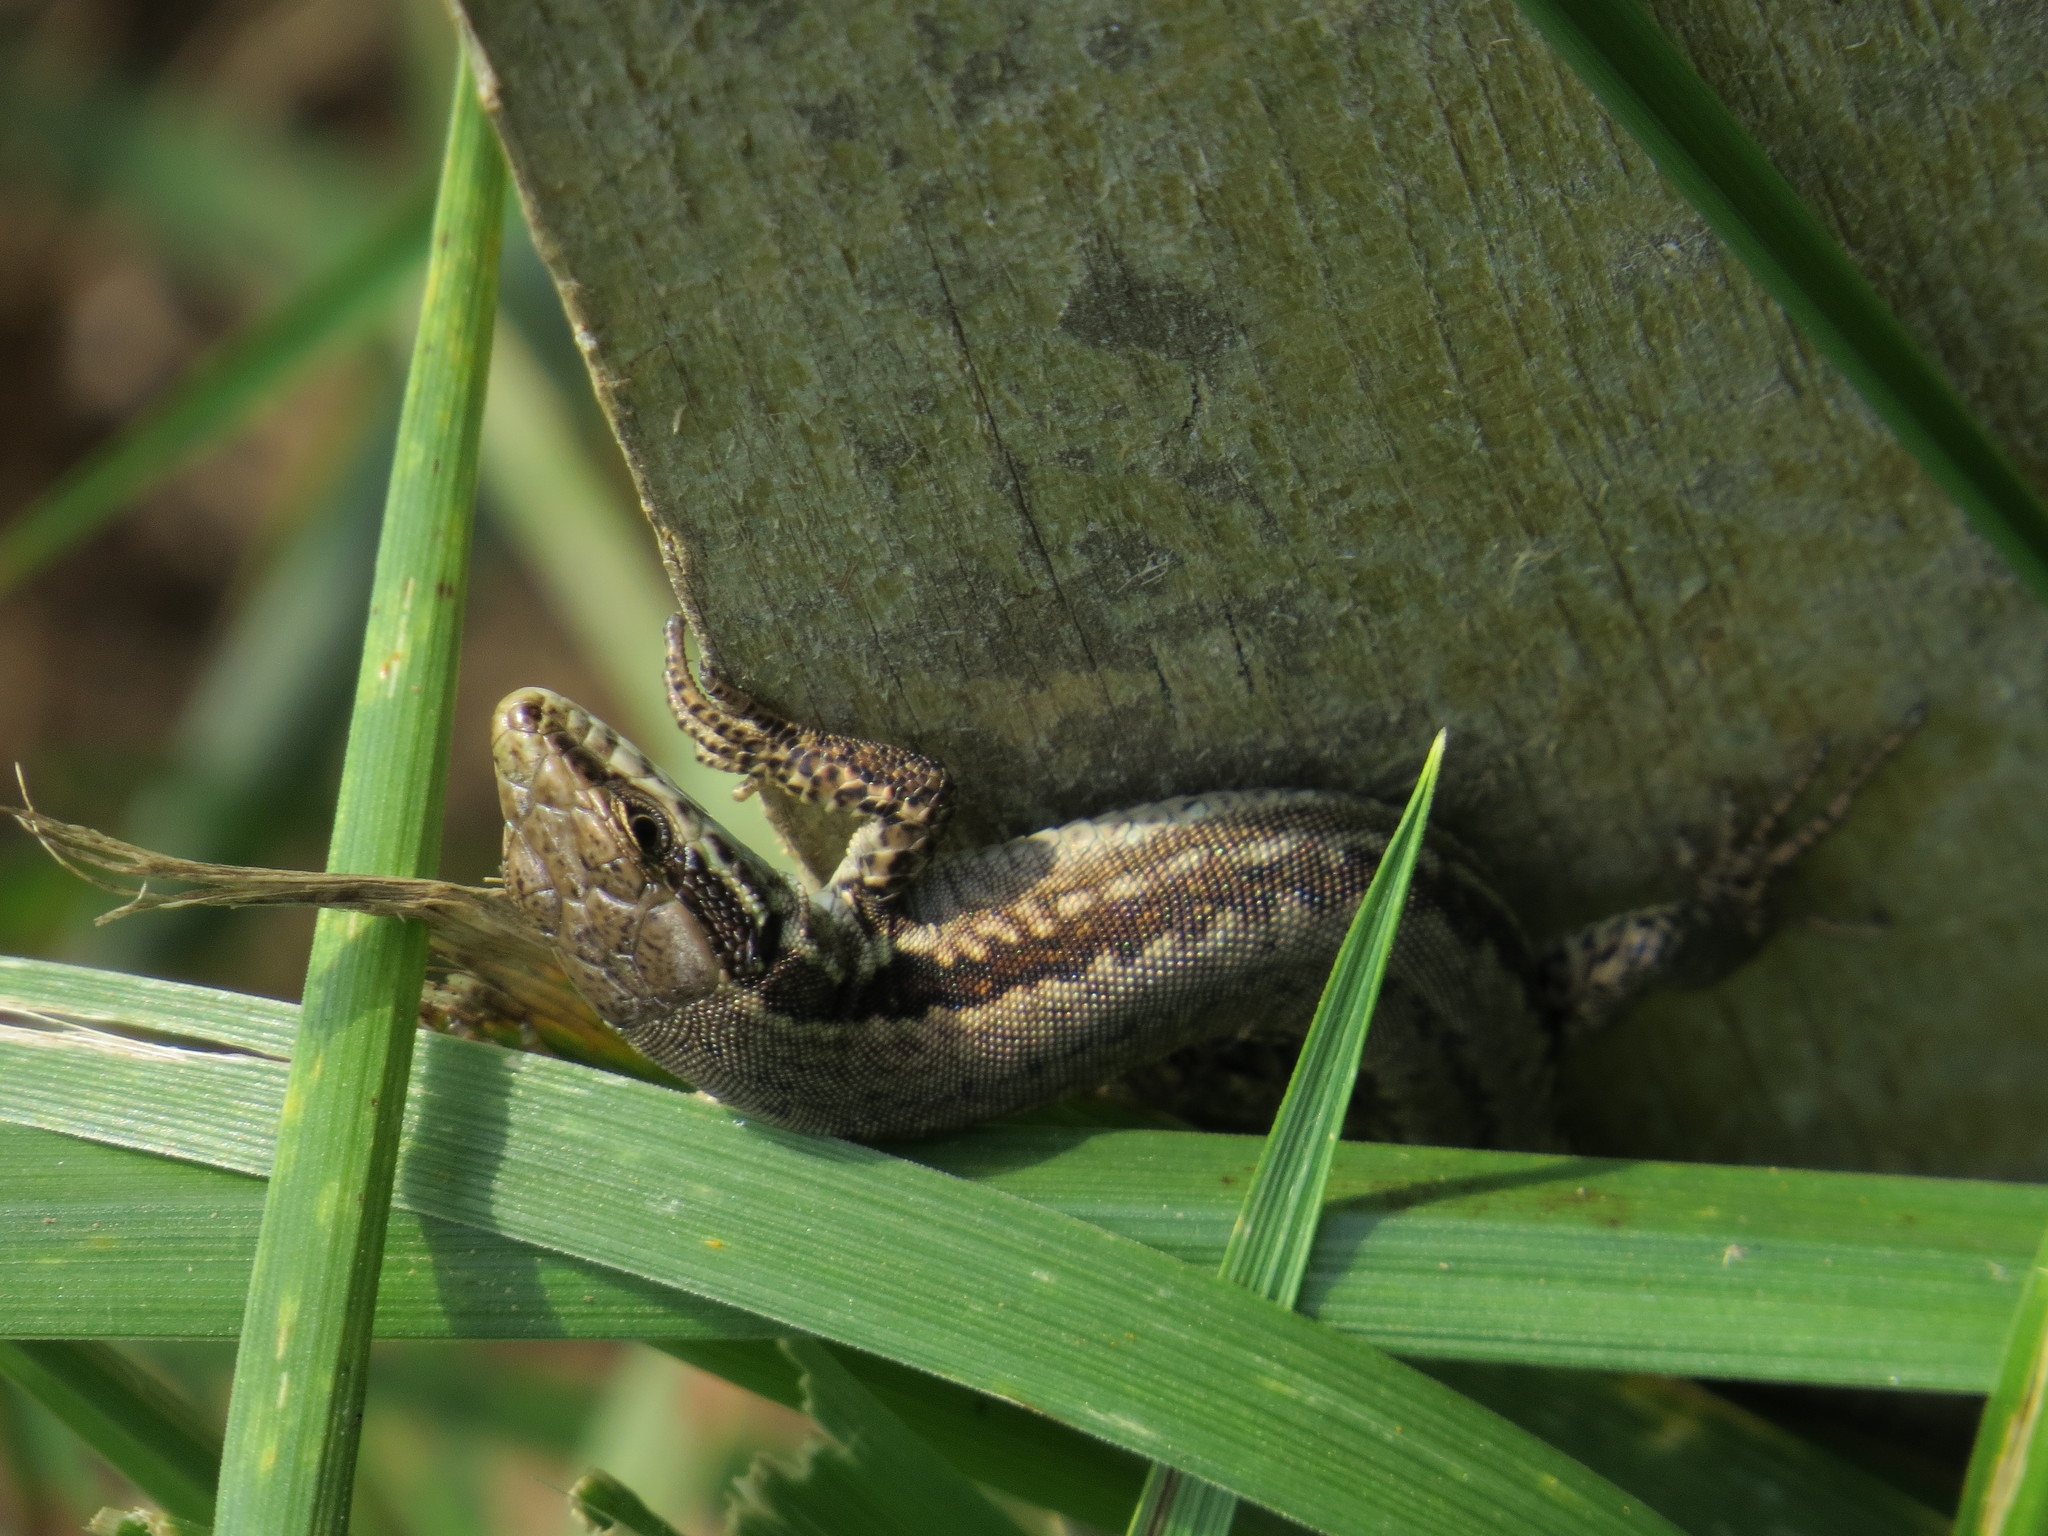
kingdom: Animalia
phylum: Chordata
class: Squamata
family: Lacertidae
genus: Podarcis
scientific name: Podarcis muralis
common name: Common wall lizard
